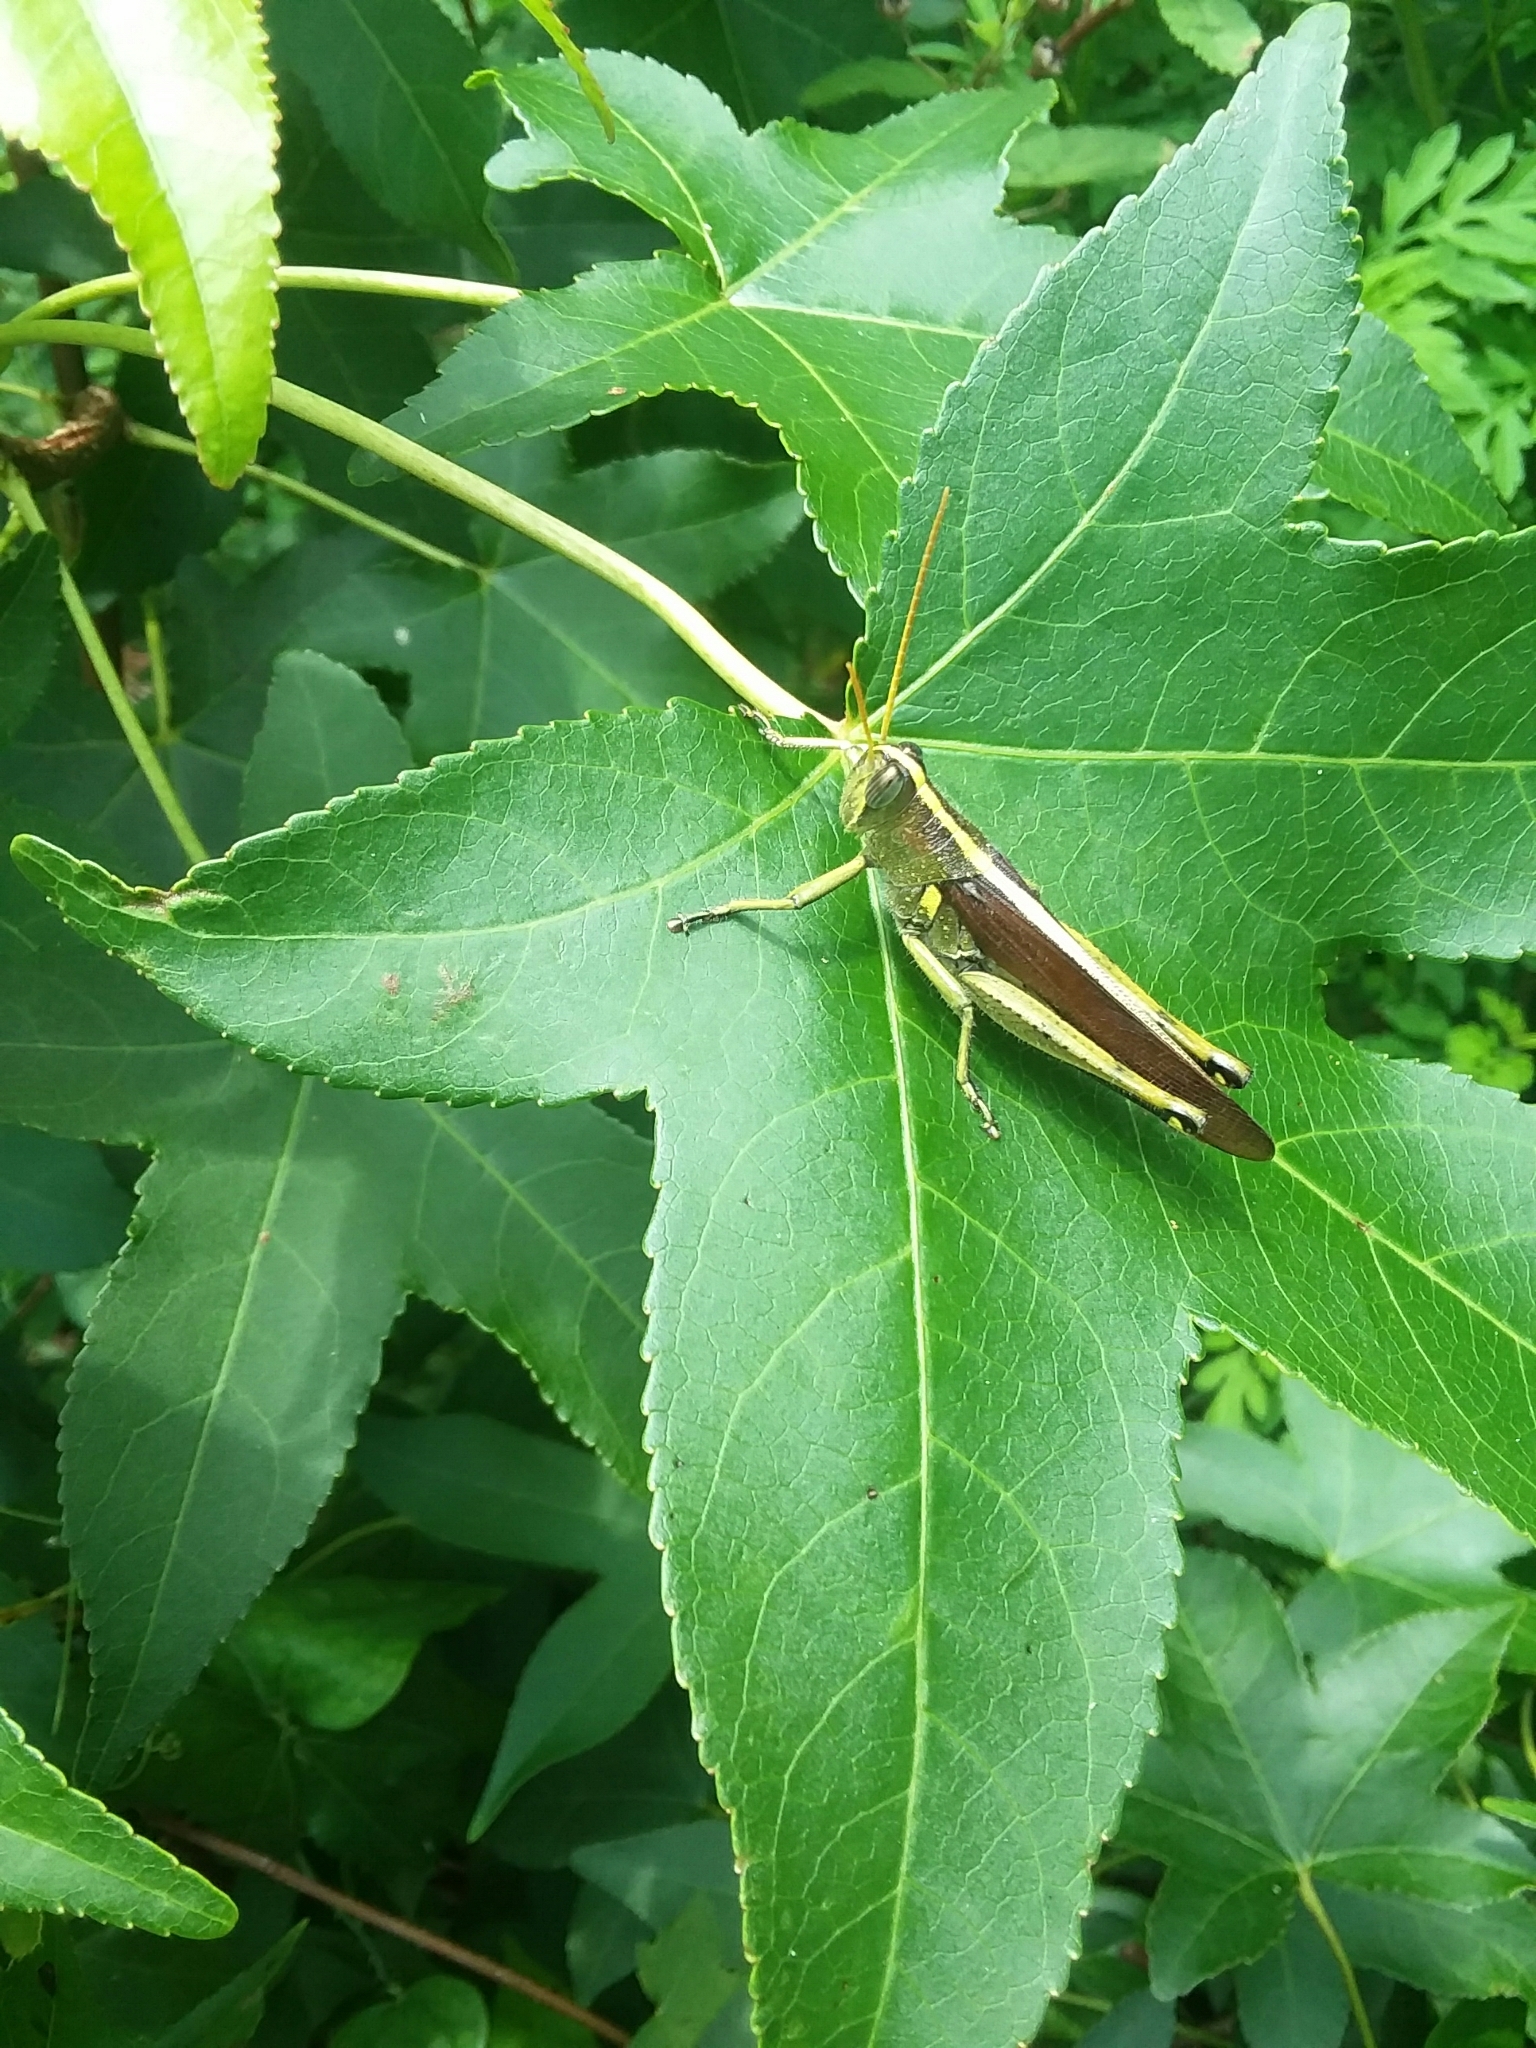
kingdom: Animalia
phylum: Arthropoda
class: Insecta
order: Orthoptera
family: Acrididae
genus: Schistocerca
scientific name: Schistocerca obscura
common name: Obscure bird grasshopper
